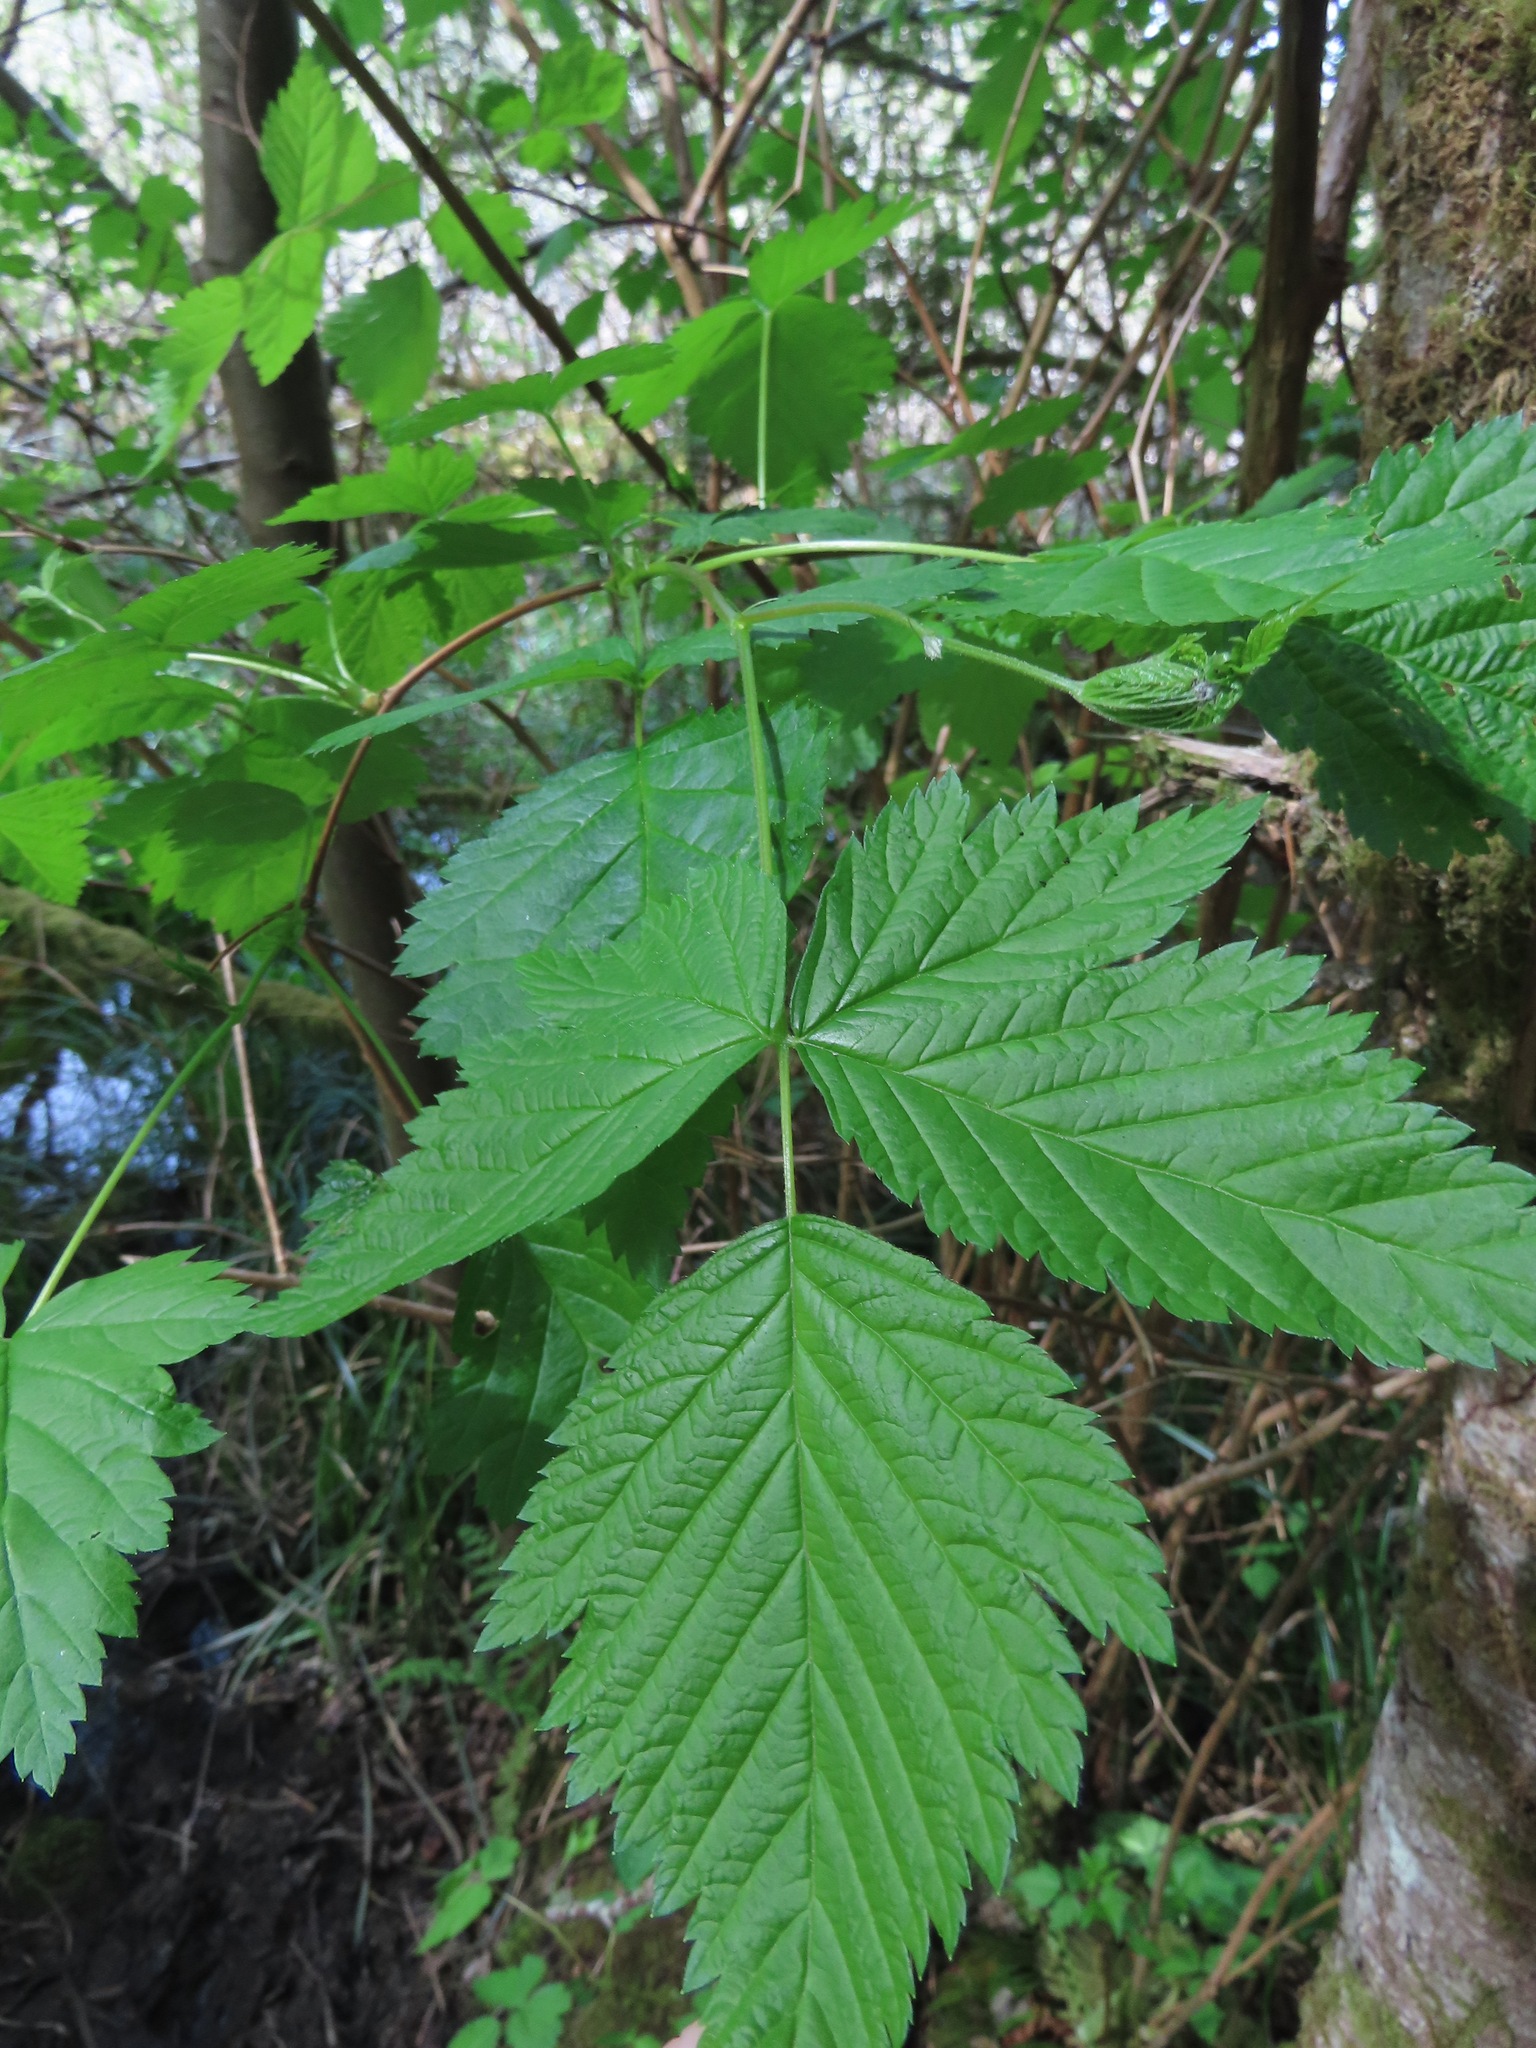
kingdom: Plantae
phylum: Tracheophyta
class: Magnoliopsida
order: Rosales
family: Rosaceae
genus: Rubus
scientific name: Rubus spectabilis
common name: Salmonberry
